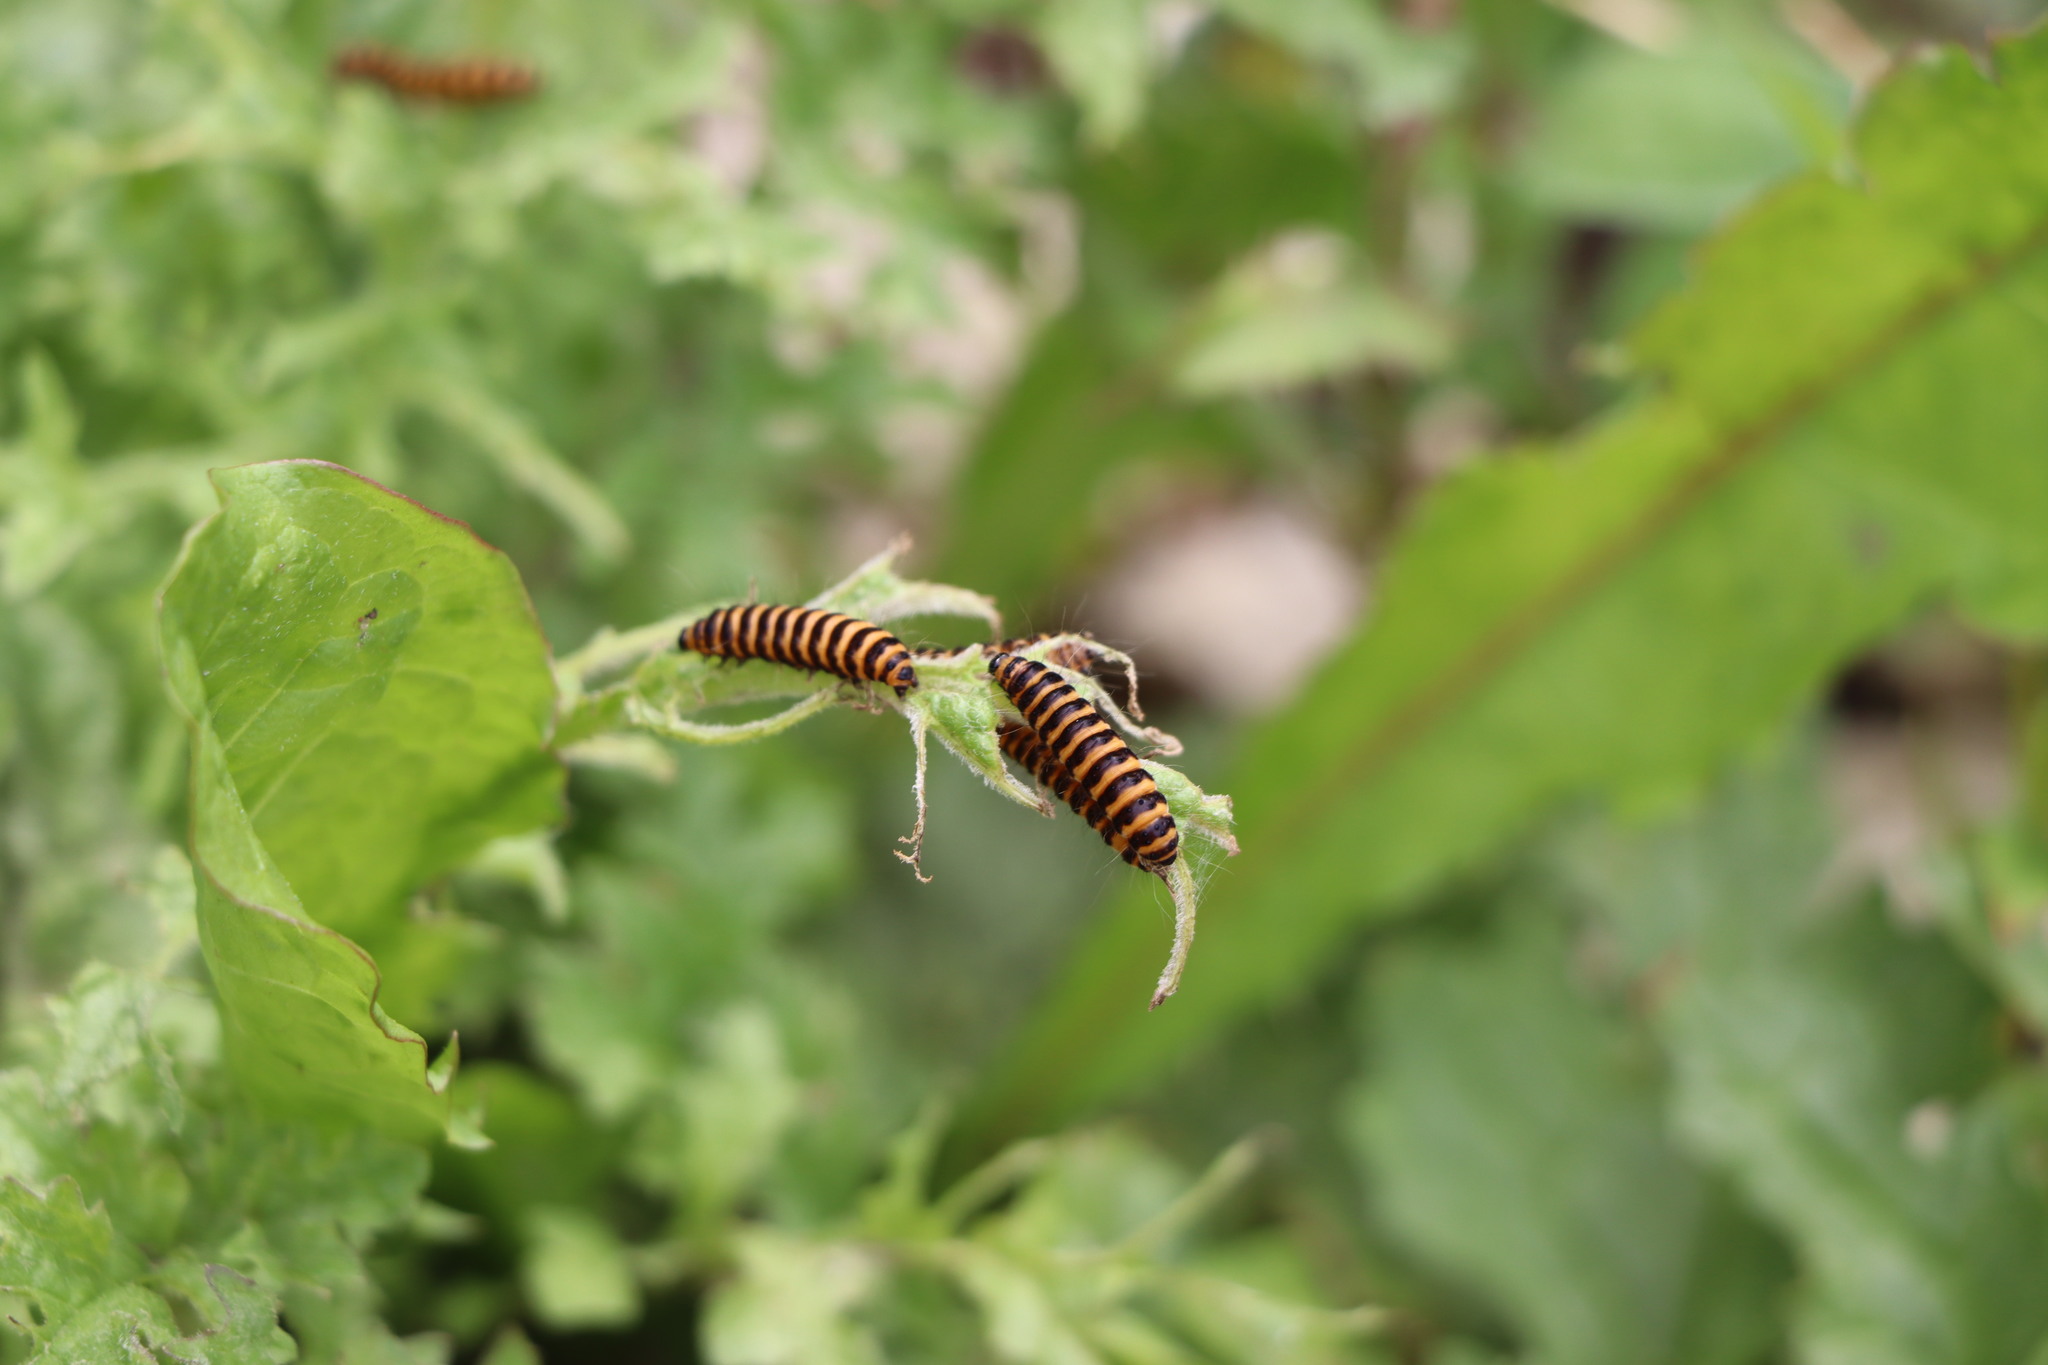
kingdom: Animalia
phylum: Arthropoda
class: Insecta
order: Lepidoptera
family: Erebidae
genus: Tyria
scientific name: Tyria jacobaeae
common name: Cinnabar
